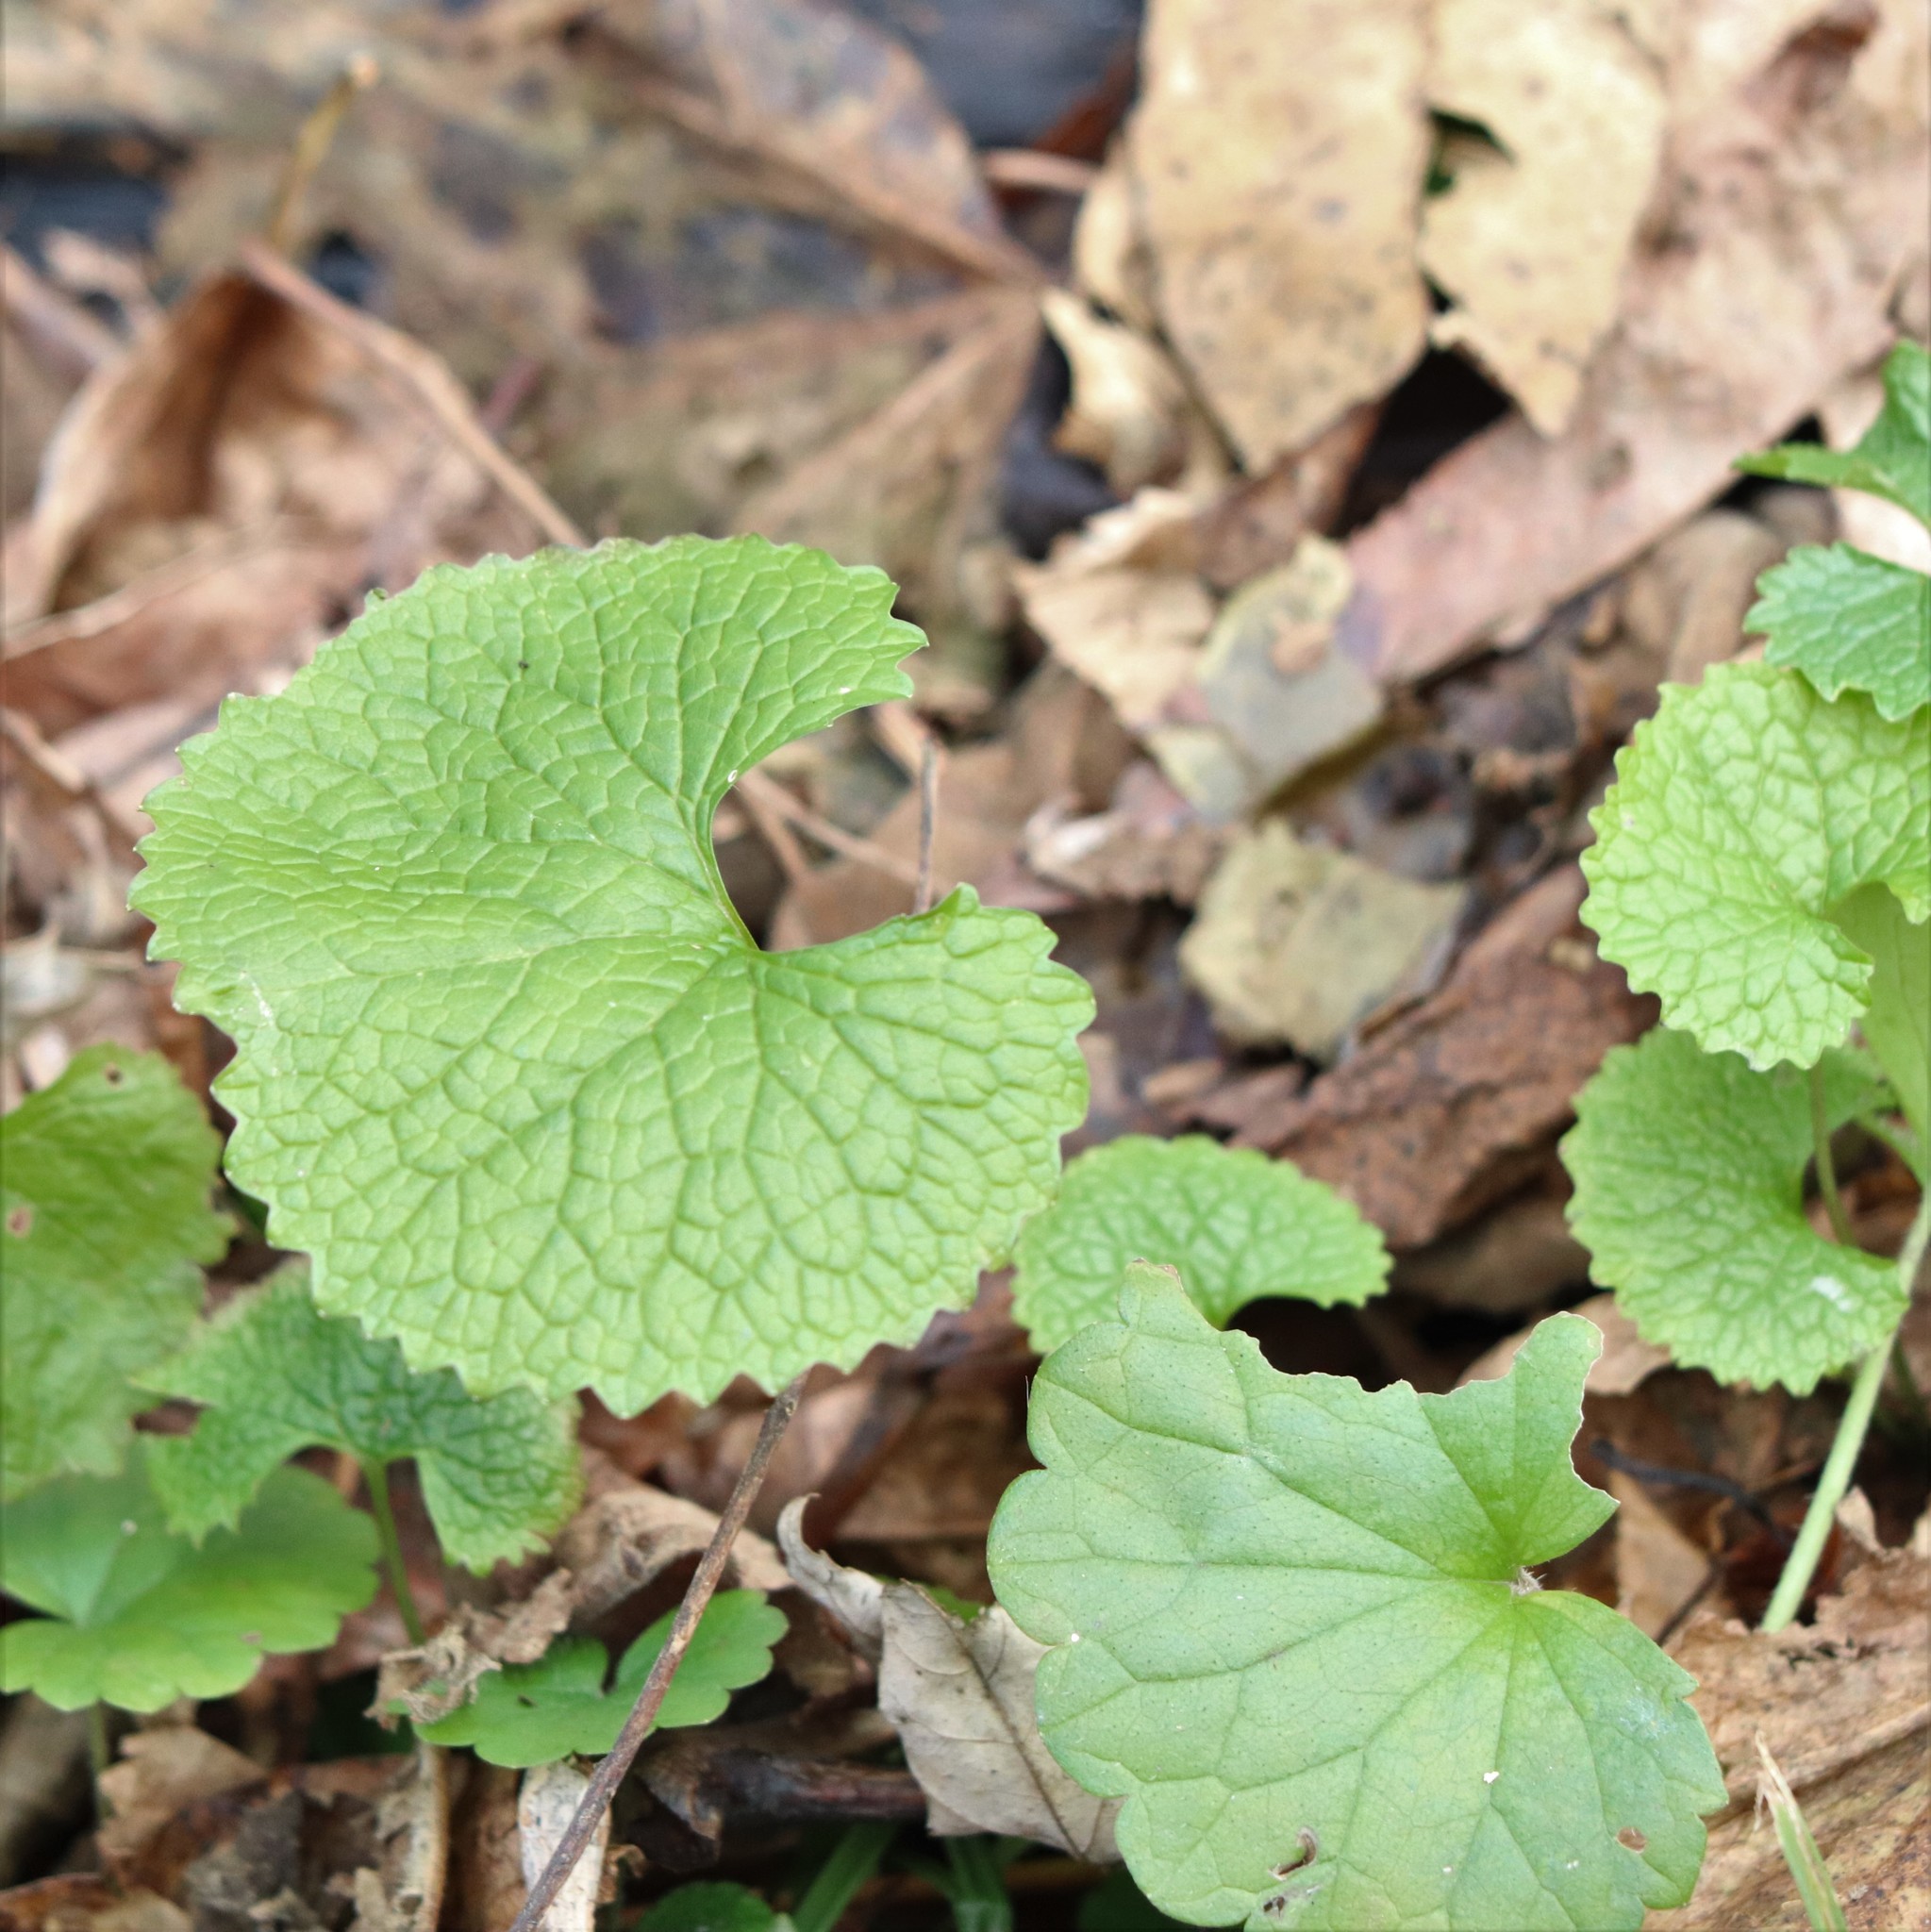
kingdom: Plantae
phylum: Tracheophyta
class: Magnoliopsida
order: Brassicales
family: Brassicaceae
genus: Alliaria
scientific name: Alliaria petiolata
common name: Garlic mustard
